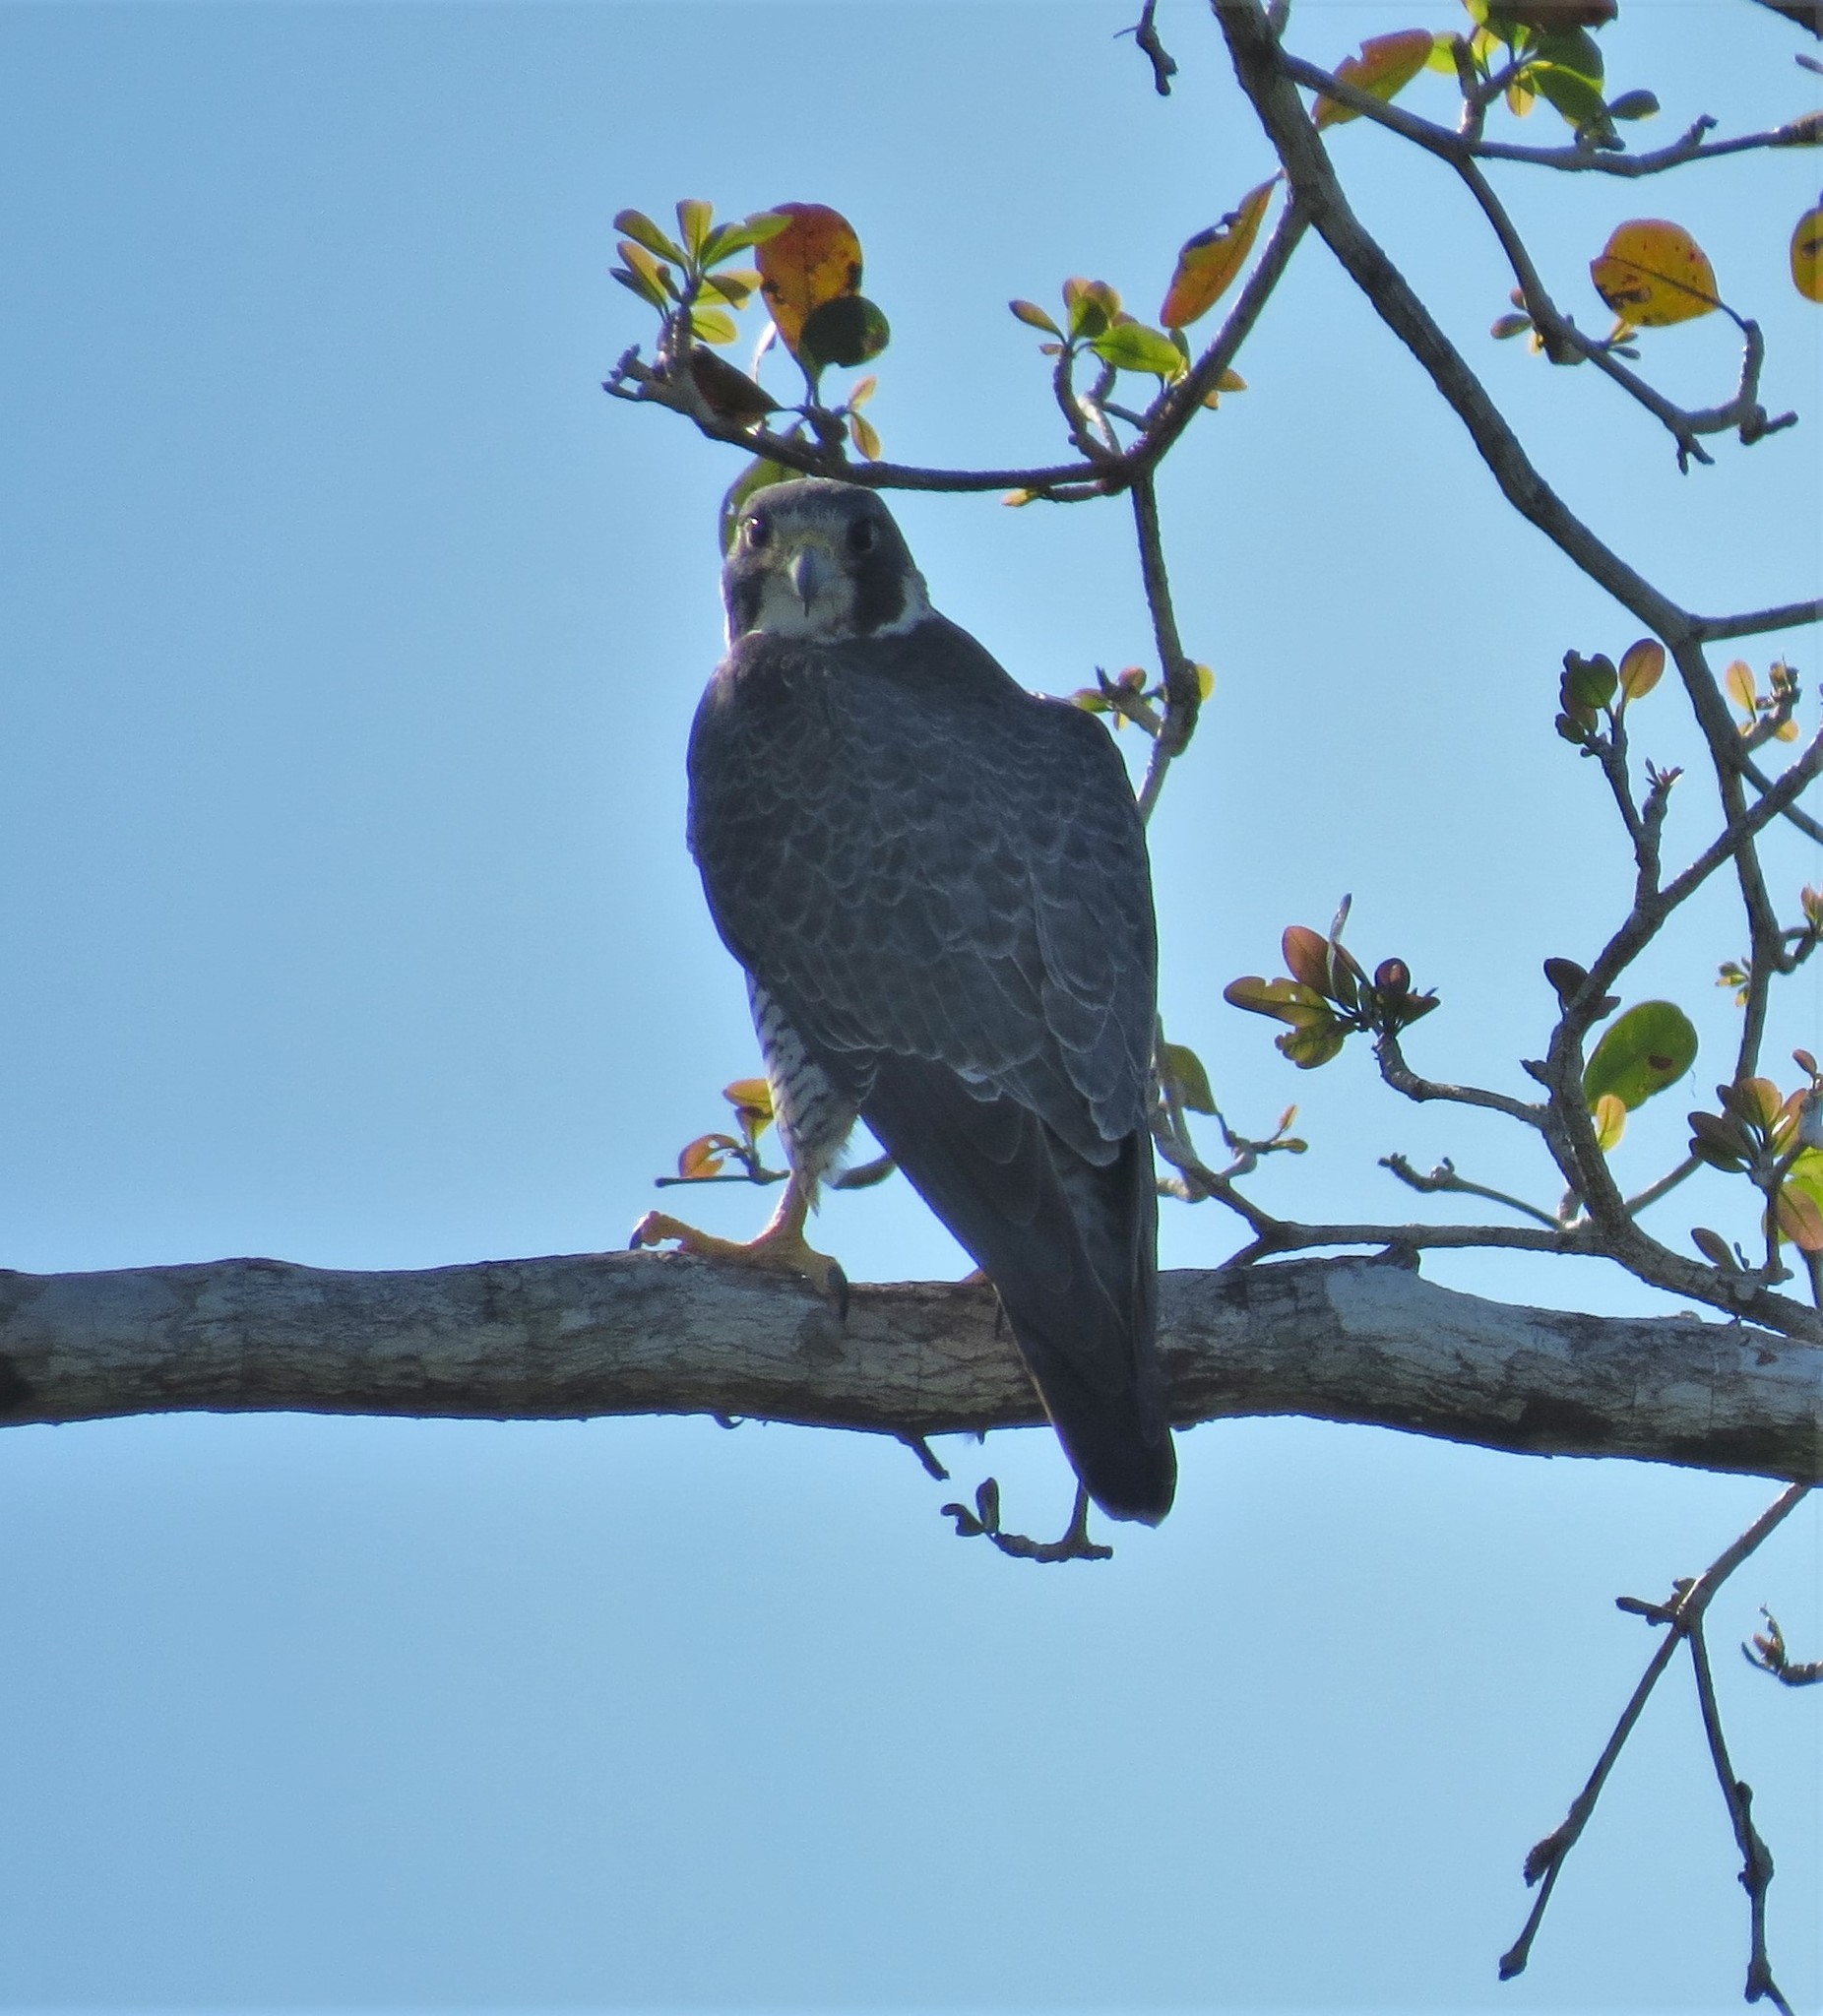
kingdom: Animalia
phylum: Chordata
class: Aves
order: Falconiformes
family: Falconidae
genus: Falco
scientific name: Falco peregrinus
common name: Peregrine falcon
